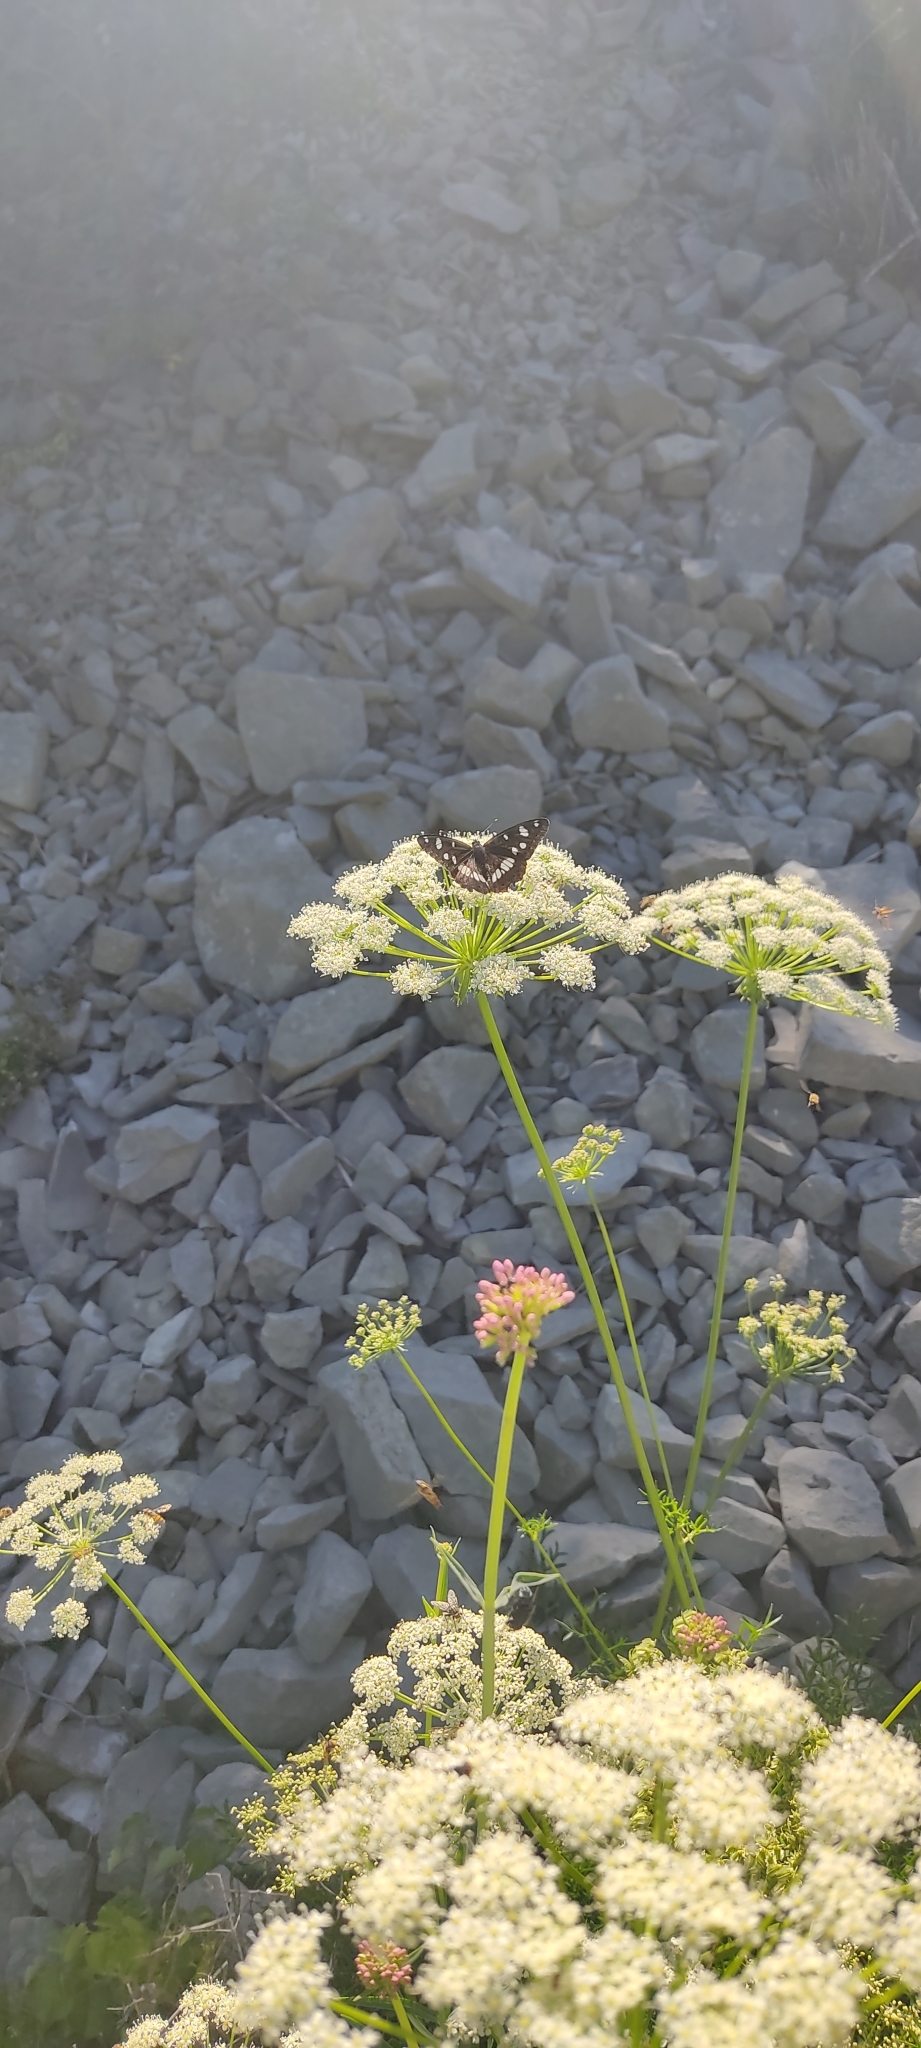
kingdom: Animalia
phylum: Arthropoda
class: Insecta
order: Lepidoptera
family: Nymphalidae
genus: Limenitis
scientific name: Limenitis reducta
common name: Southern white admiral
